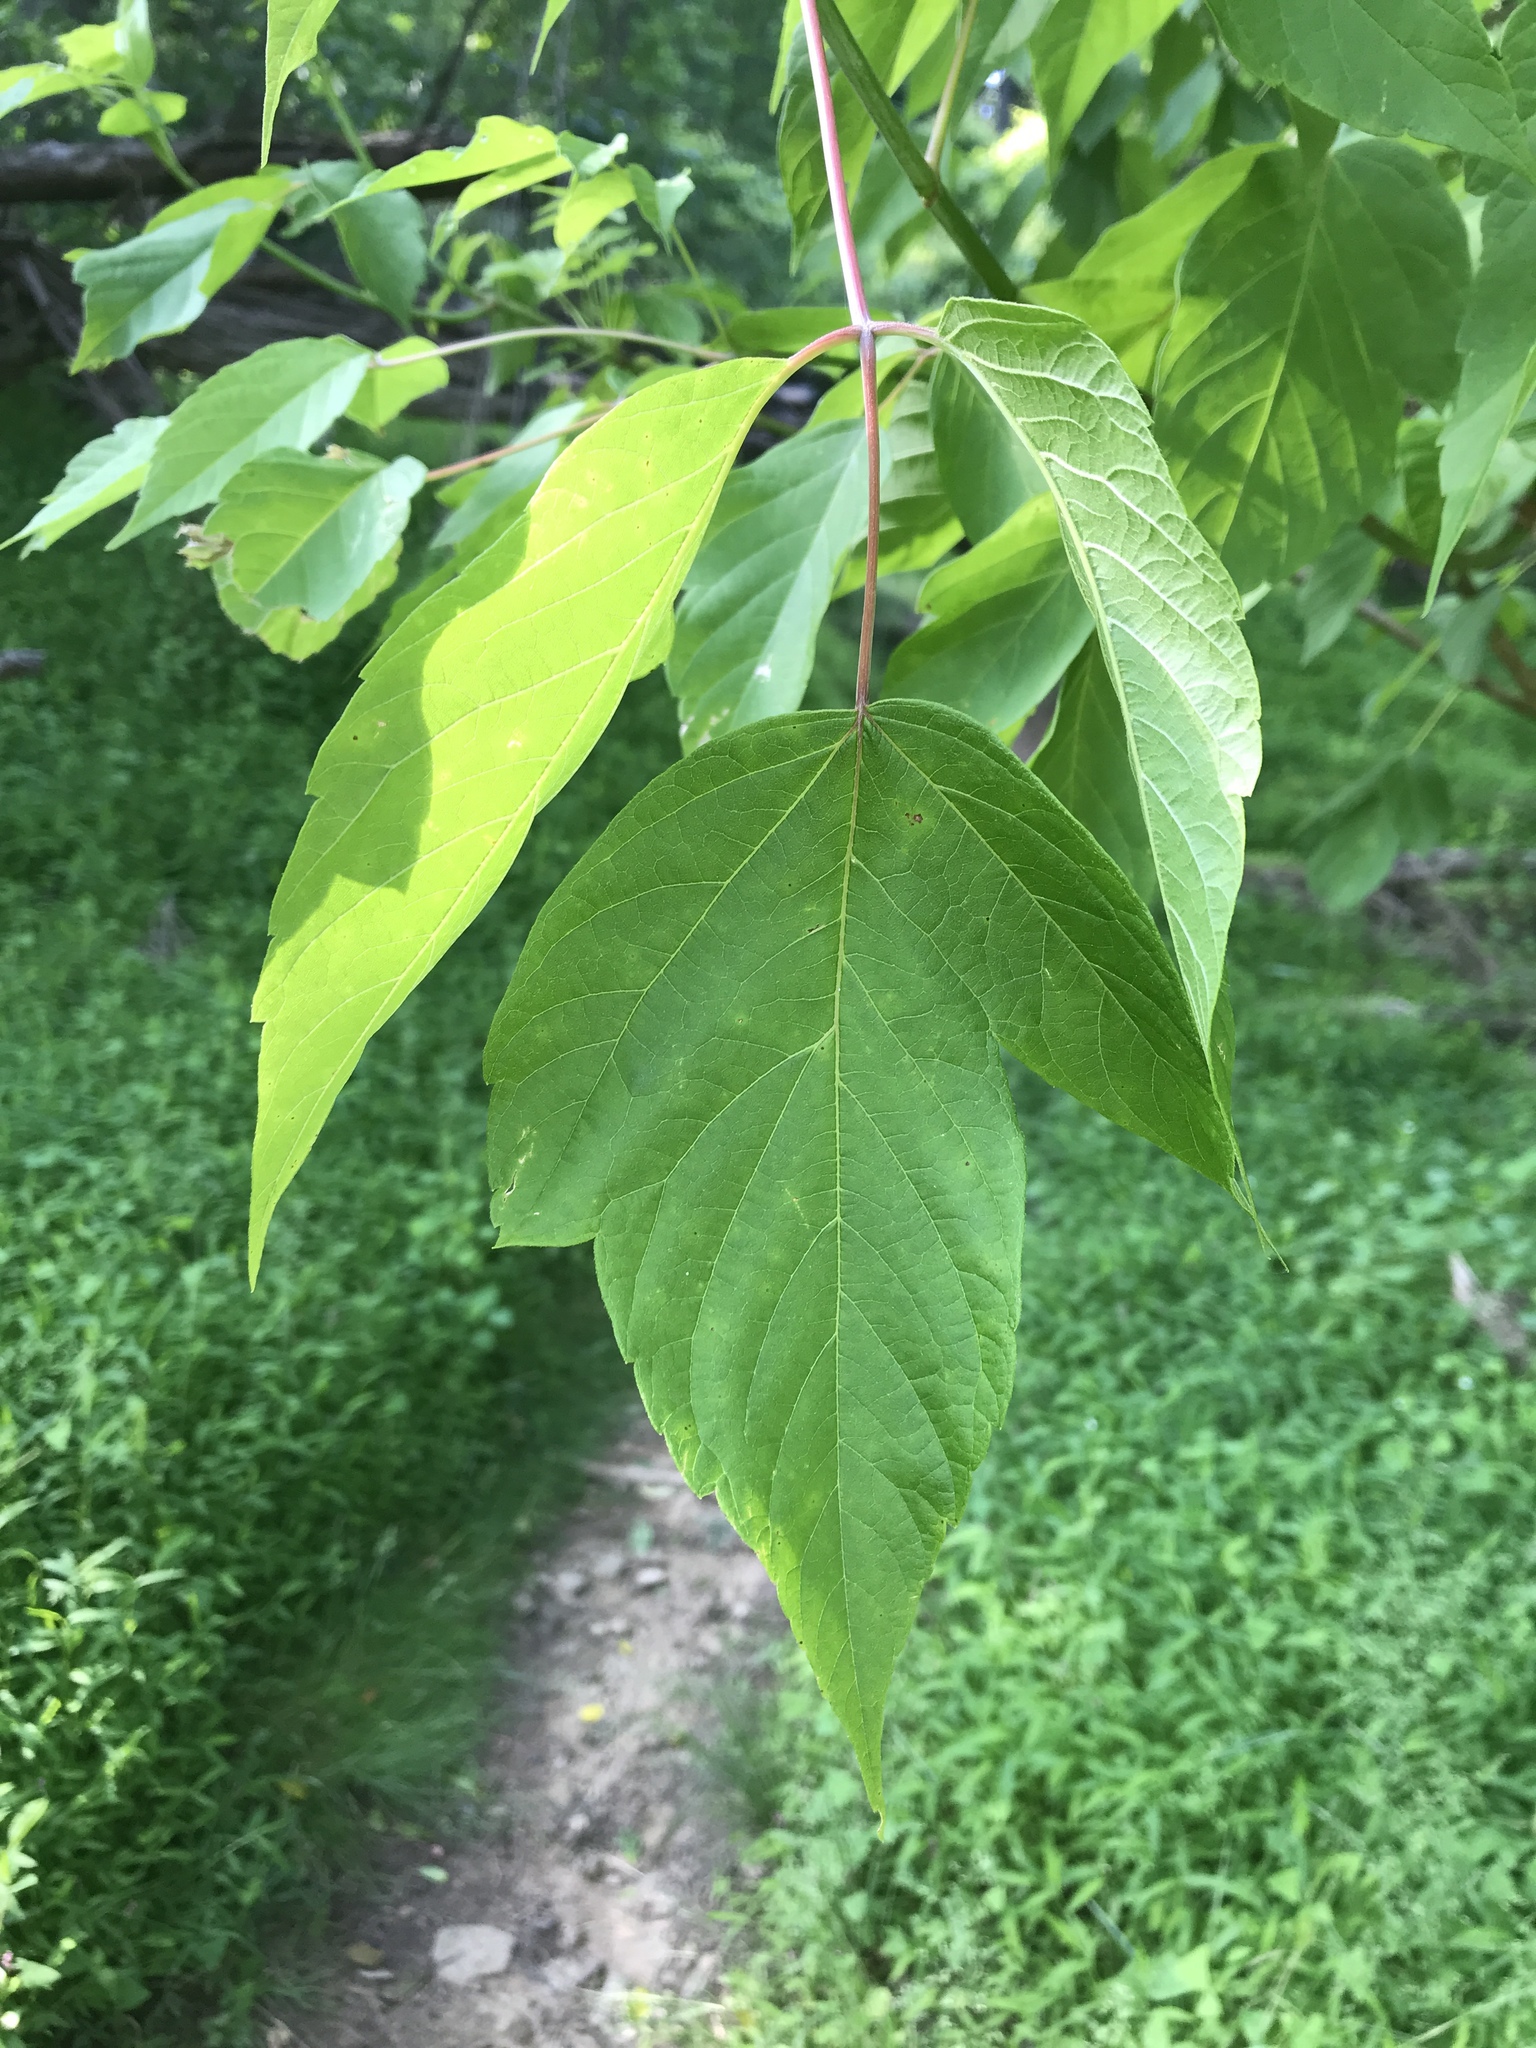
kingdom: Plantae
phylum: Tracheophyta
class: Magnoliopsida
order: Sapindales
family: Sapindaceae
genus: Acer
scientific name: Acer negundo
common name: Ashleaf maple
